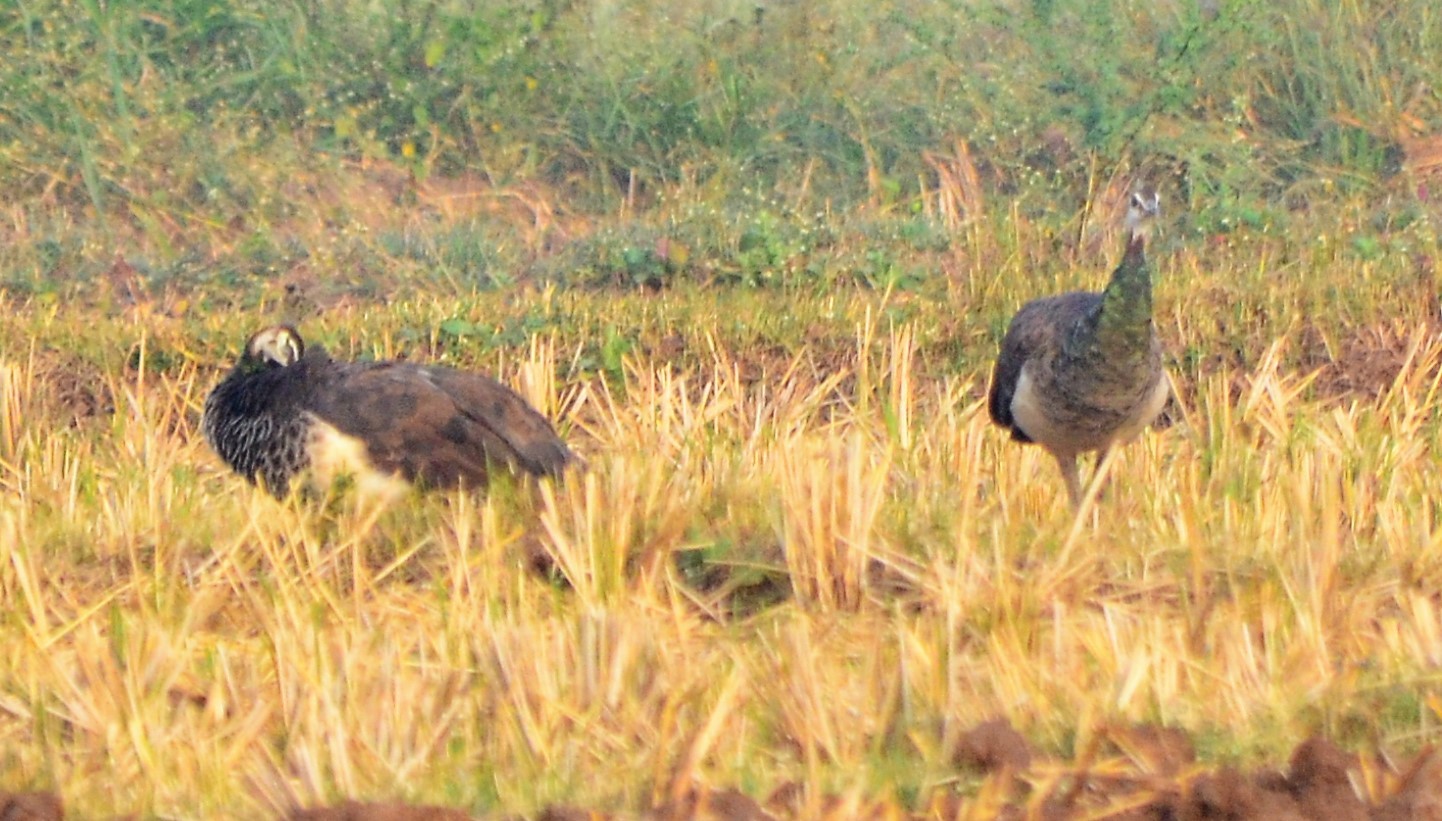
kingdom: Animalia
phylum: Chordata
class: Aves
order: Galliformes
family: Phasianidae
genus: Pavo
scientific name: Pavo cristatus
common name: Indian peafowl
